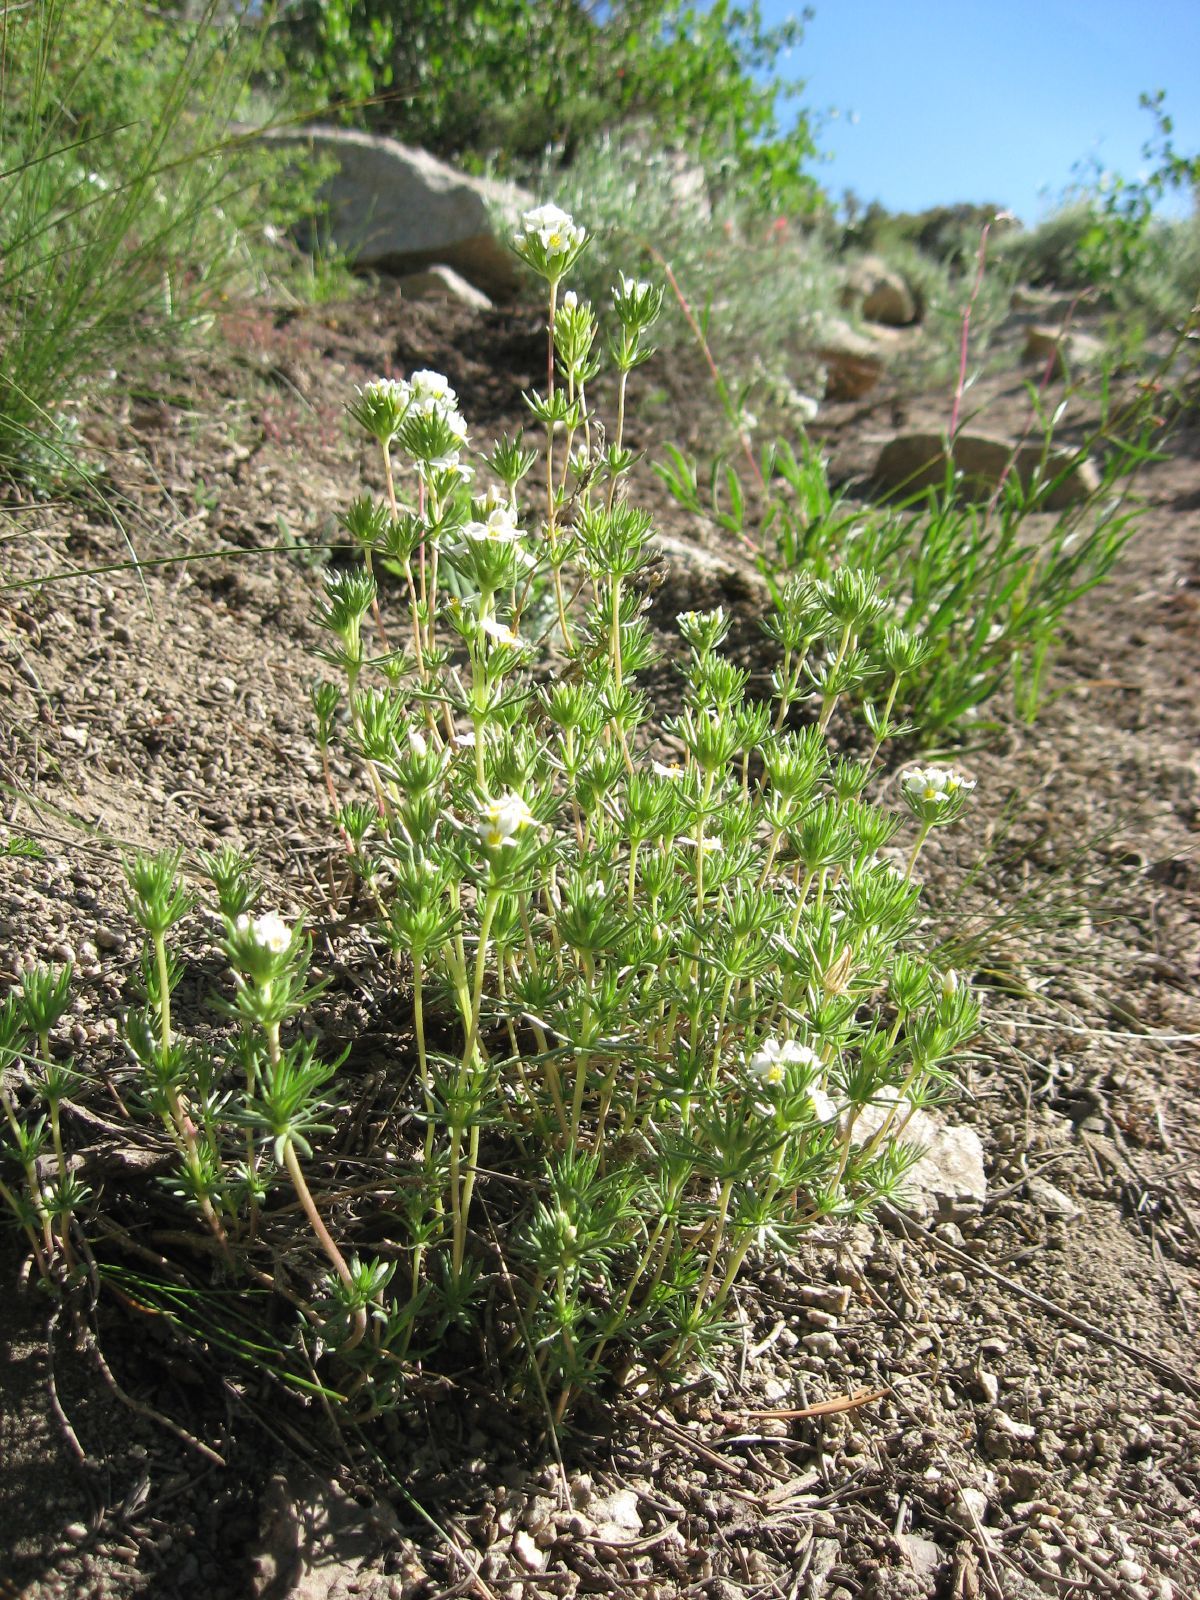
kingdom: Plantae
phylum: Tracheophyta
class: Magnoliopsida
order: Ericales
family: Polemoniaceae
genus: Leptosiphon
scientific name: Leptosiphon nuttallii
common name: Nuttall's linanthus
